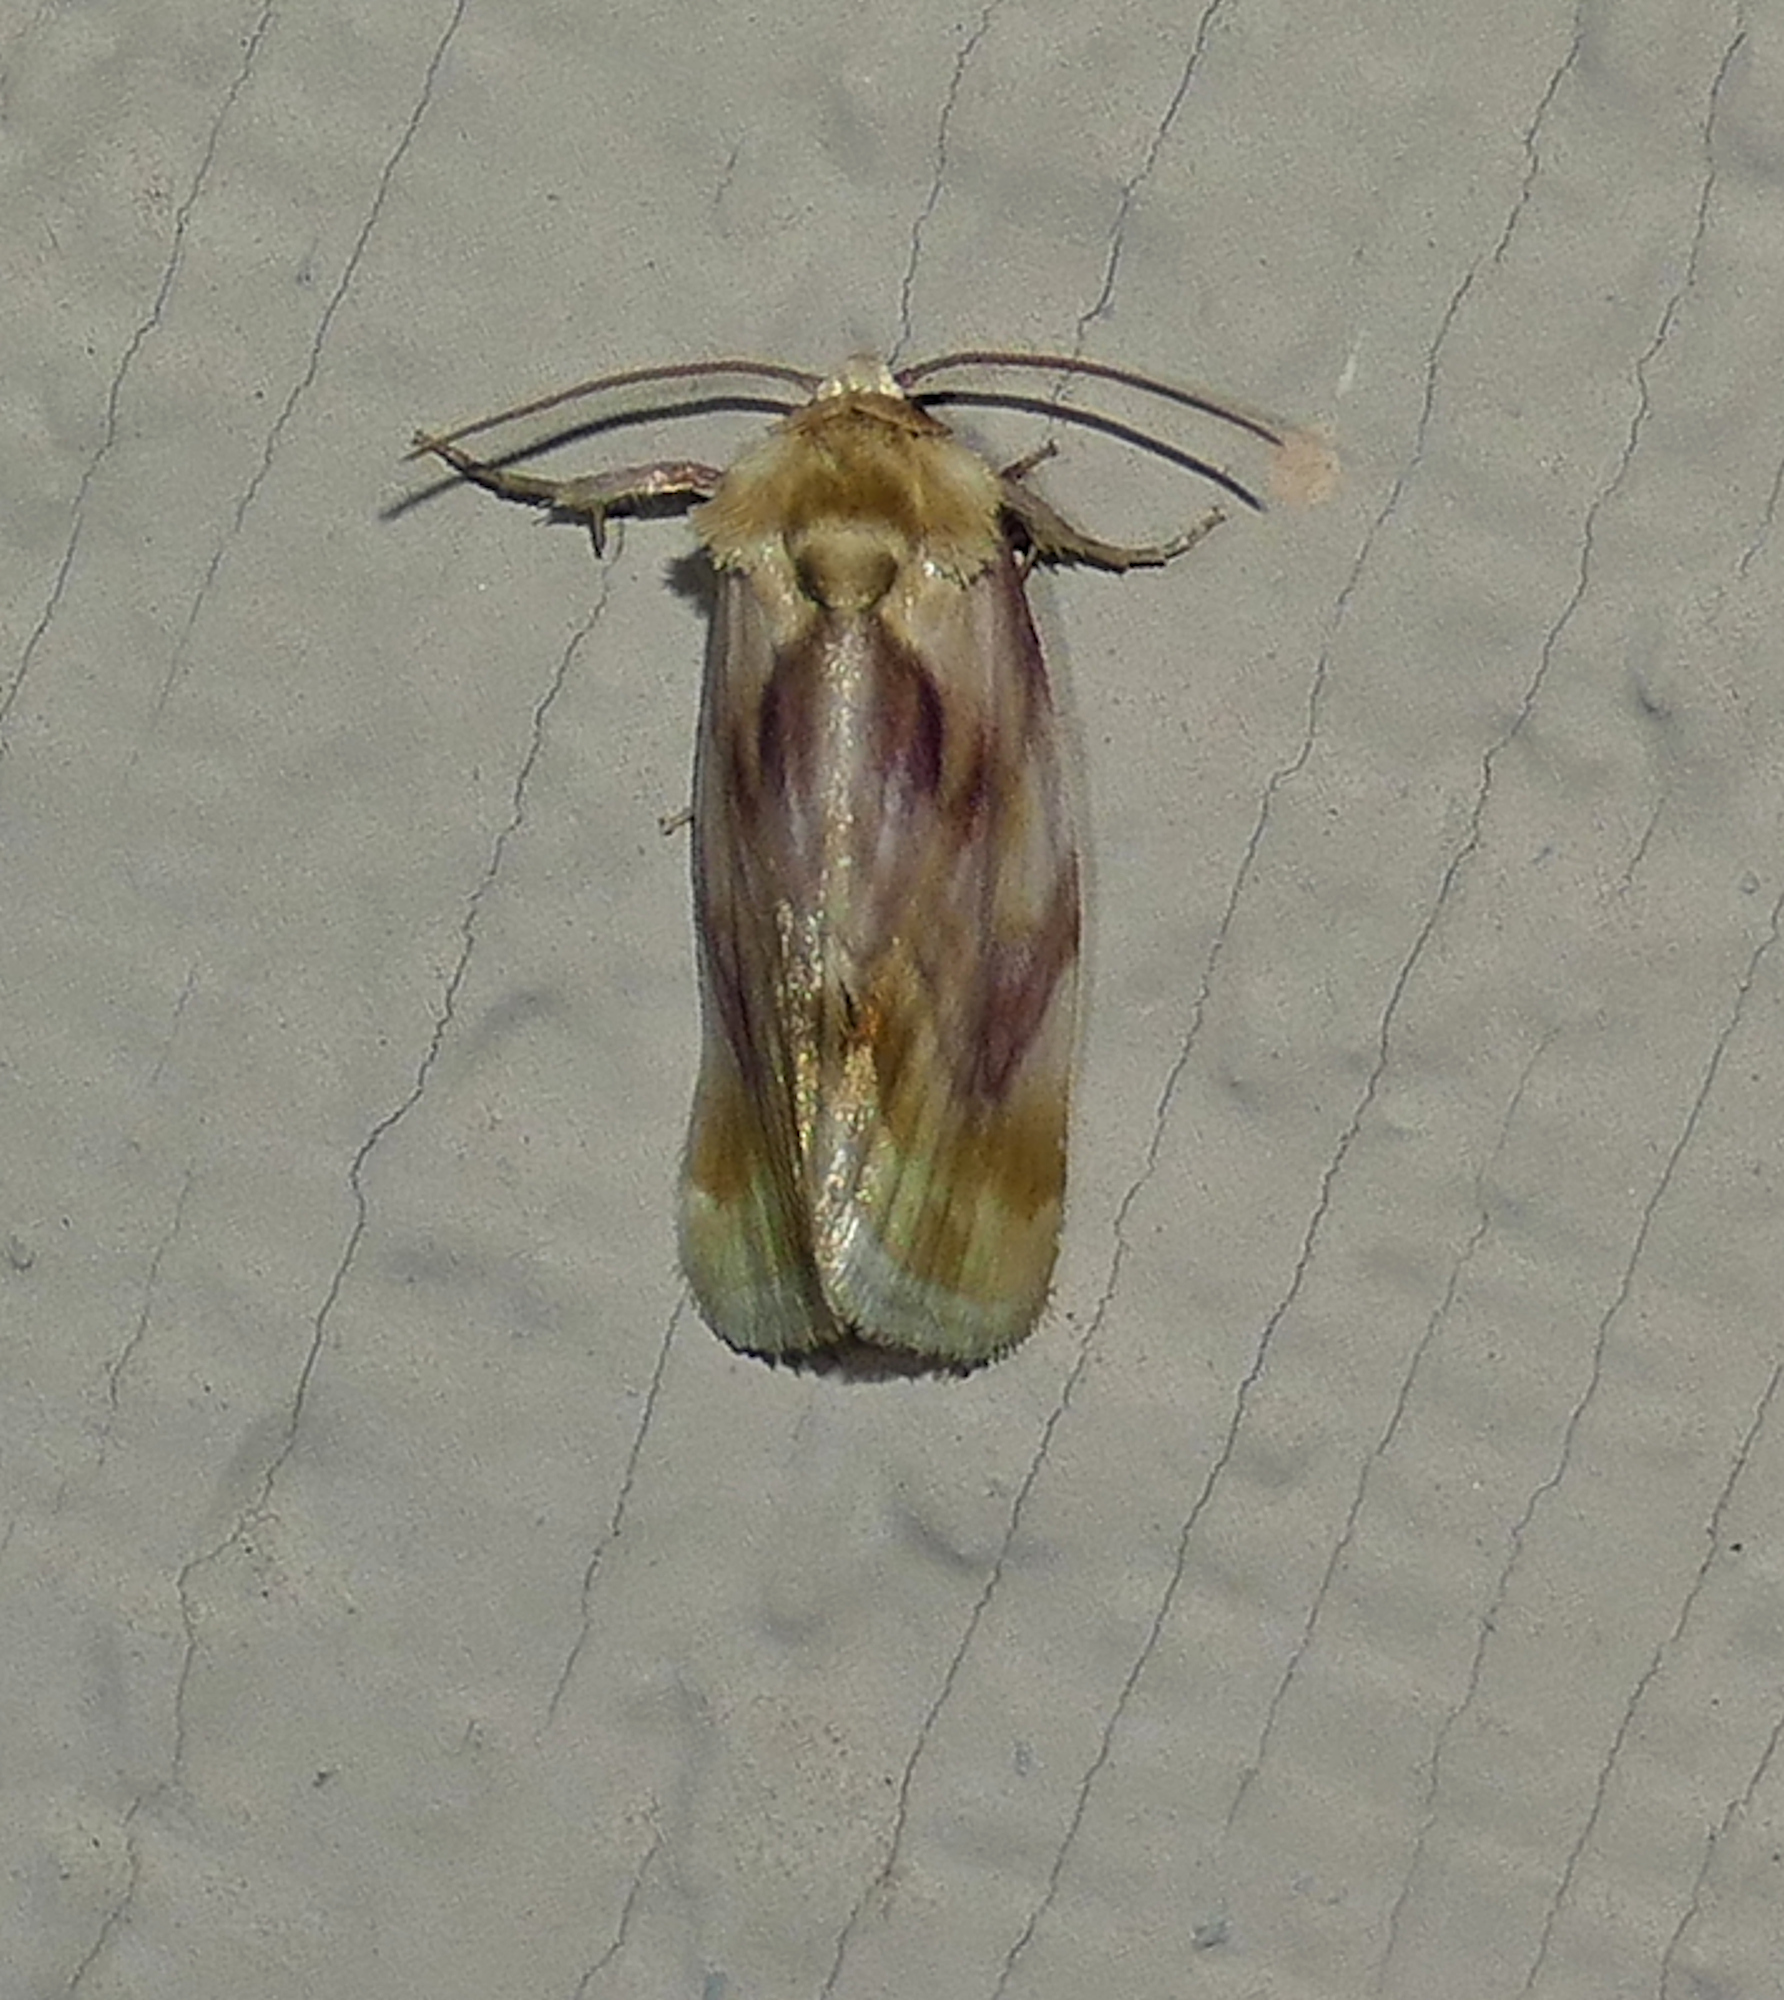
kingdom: Animalia
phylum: Arthropoda
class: Insecta
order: Lepidoptera
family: Noctuidae
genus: Chamaeclea
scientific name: Chamaeclea pernana
